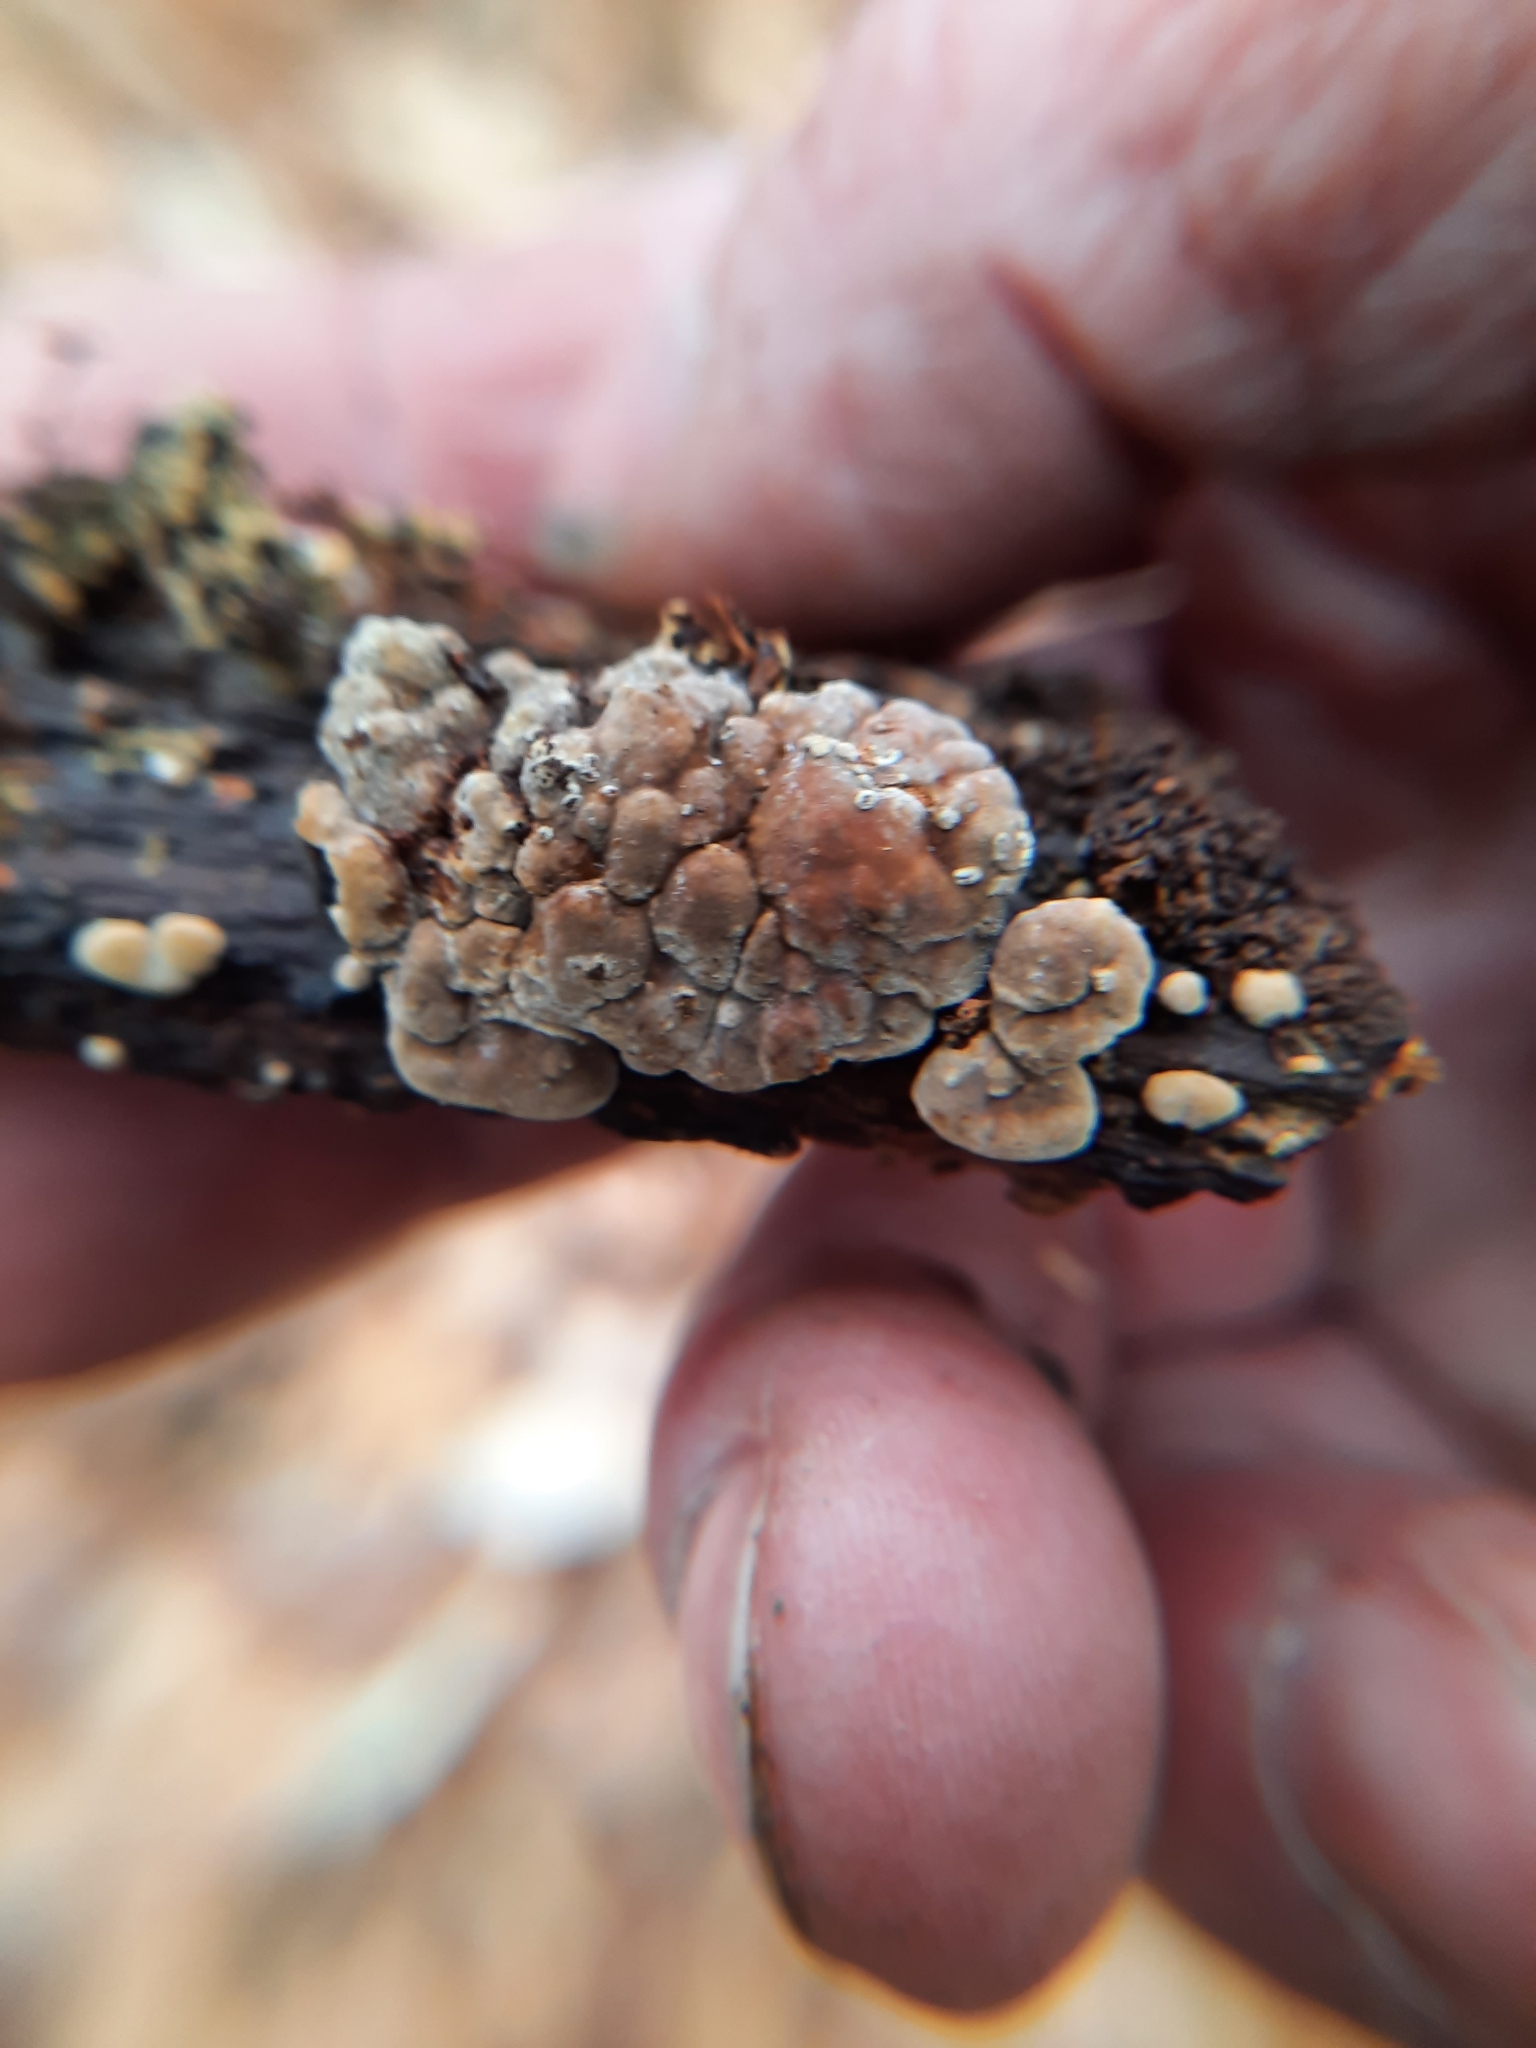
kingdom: Fungi
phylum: Basidiomycota
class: Agaricomycetes
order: Russulales
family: Stereaceae
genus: Xylobolus
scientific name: Xylobolus frustulatus
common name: Ceramic parchment
